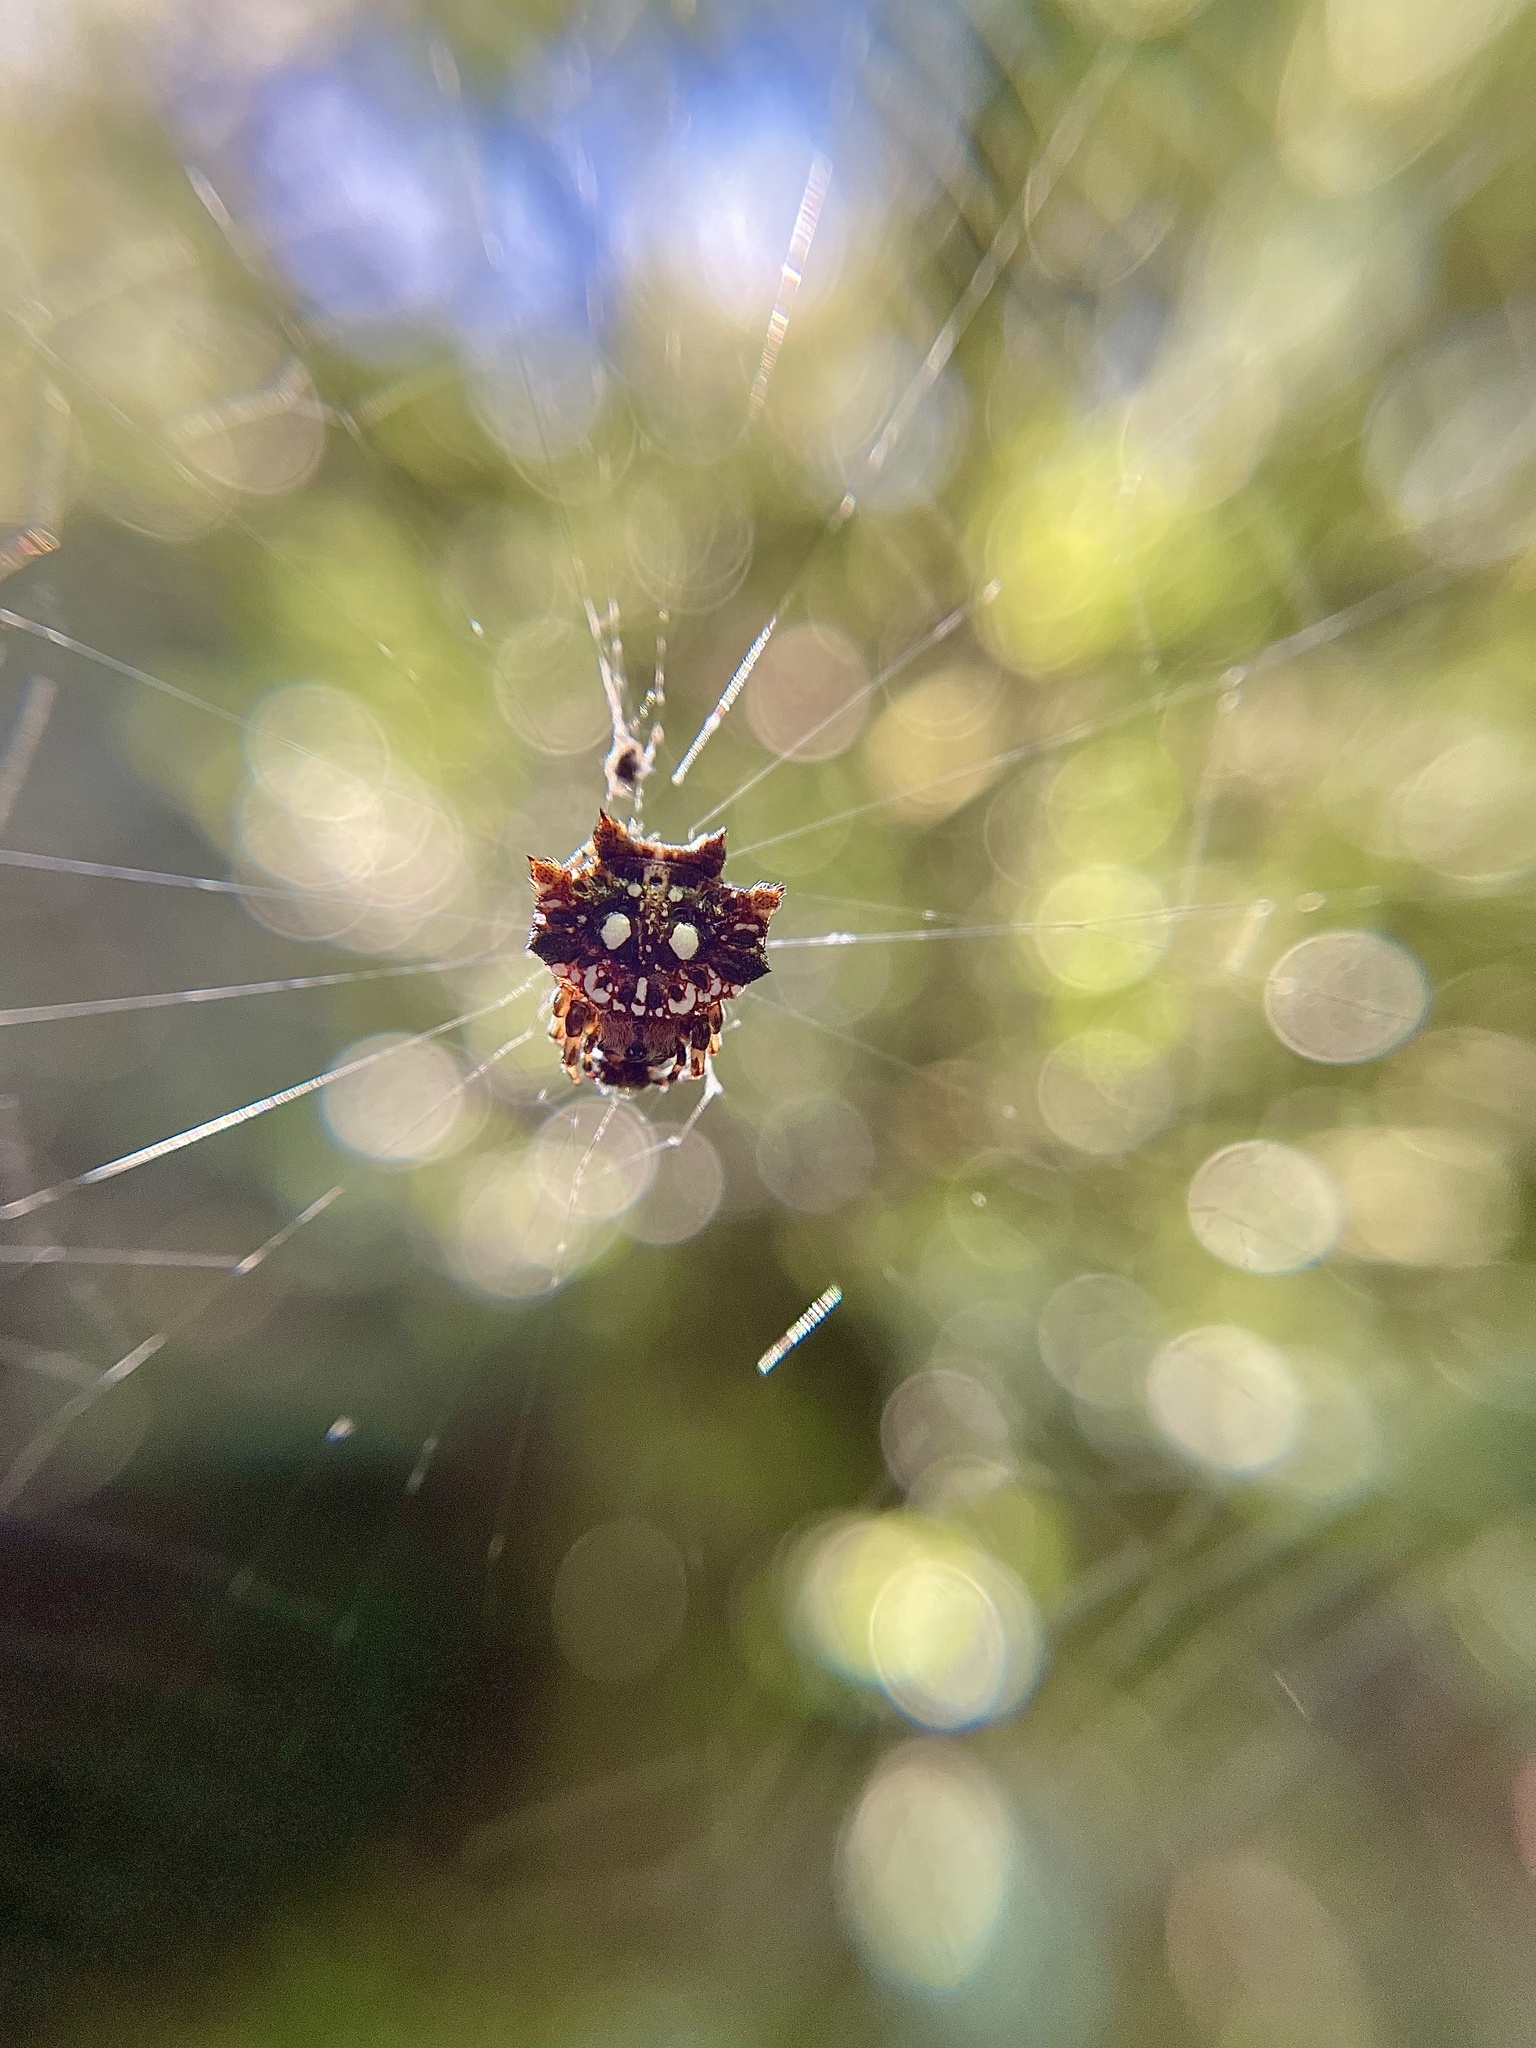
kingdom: Animalia
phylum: Arthropoda
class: Arachnida
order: Araneae
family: Araneidae
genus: Thelacantha
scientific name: Thelacantha brevispina
